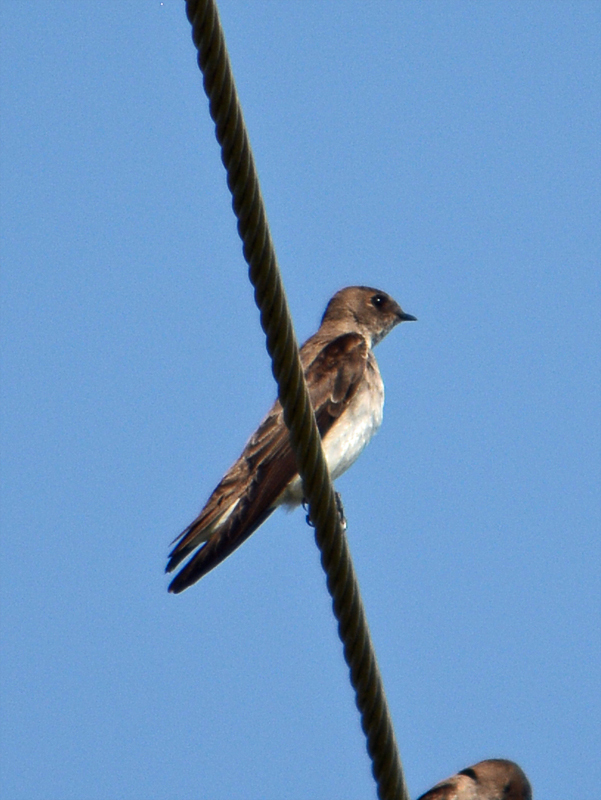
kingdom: Animalia
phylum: Chordata
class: Aves
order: Passeriformes
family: Hirundinidae
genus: Stelgidopteryx
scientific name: Stelgidopteryx serripennis
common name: Northern rough-winged swallow
